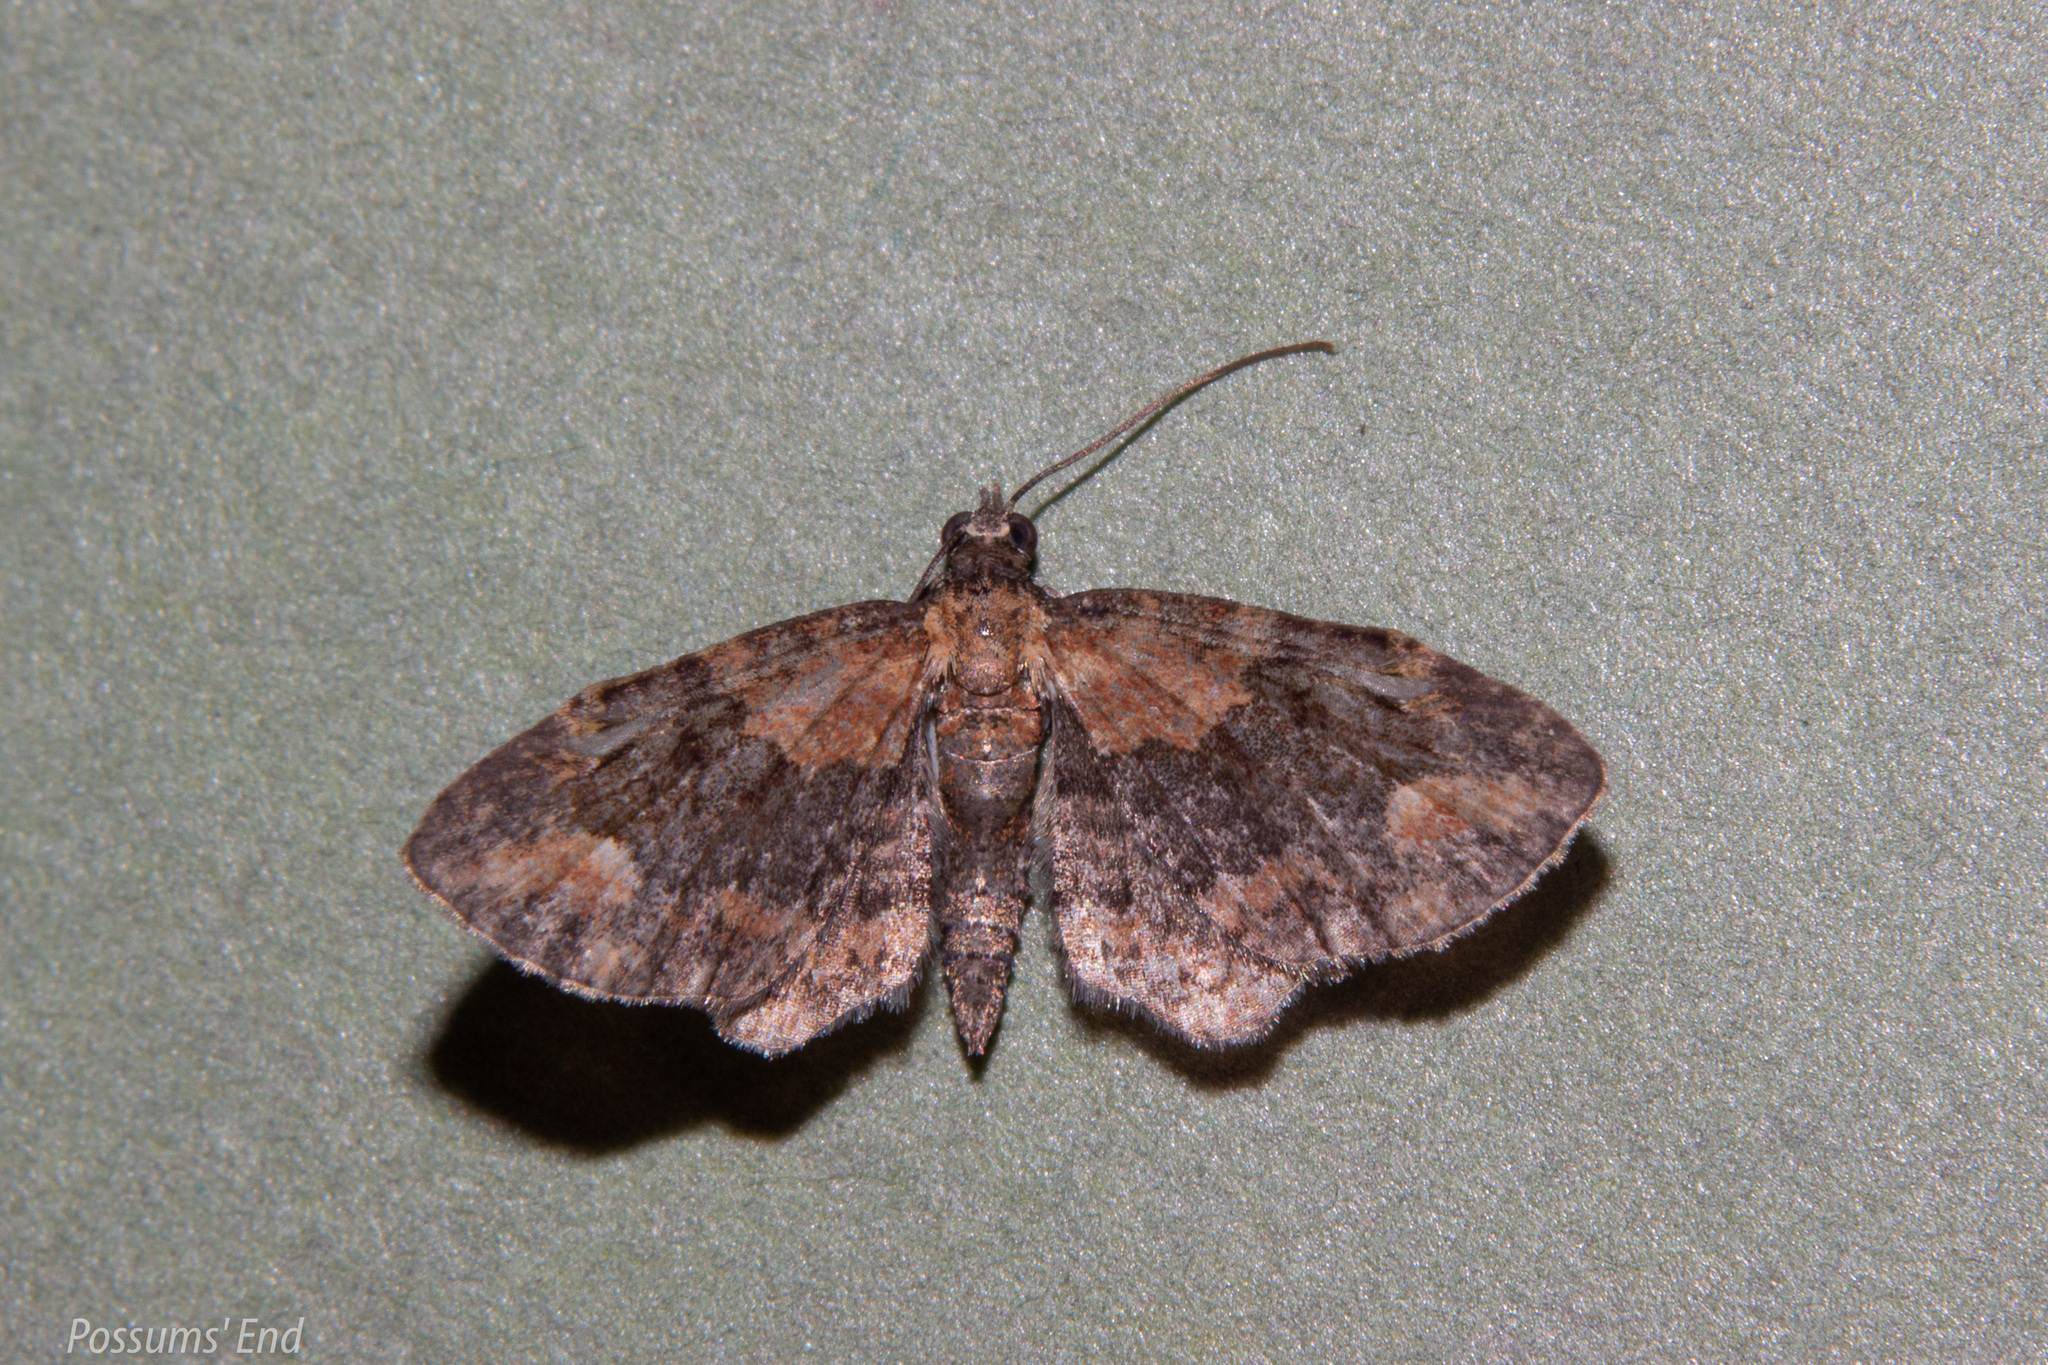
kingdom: Animalia
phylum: Arthropoda
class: Insecta
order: Lepidoptera
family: Geometridae
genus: Pasiphilodes
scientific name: Pasiphilodes testulata
